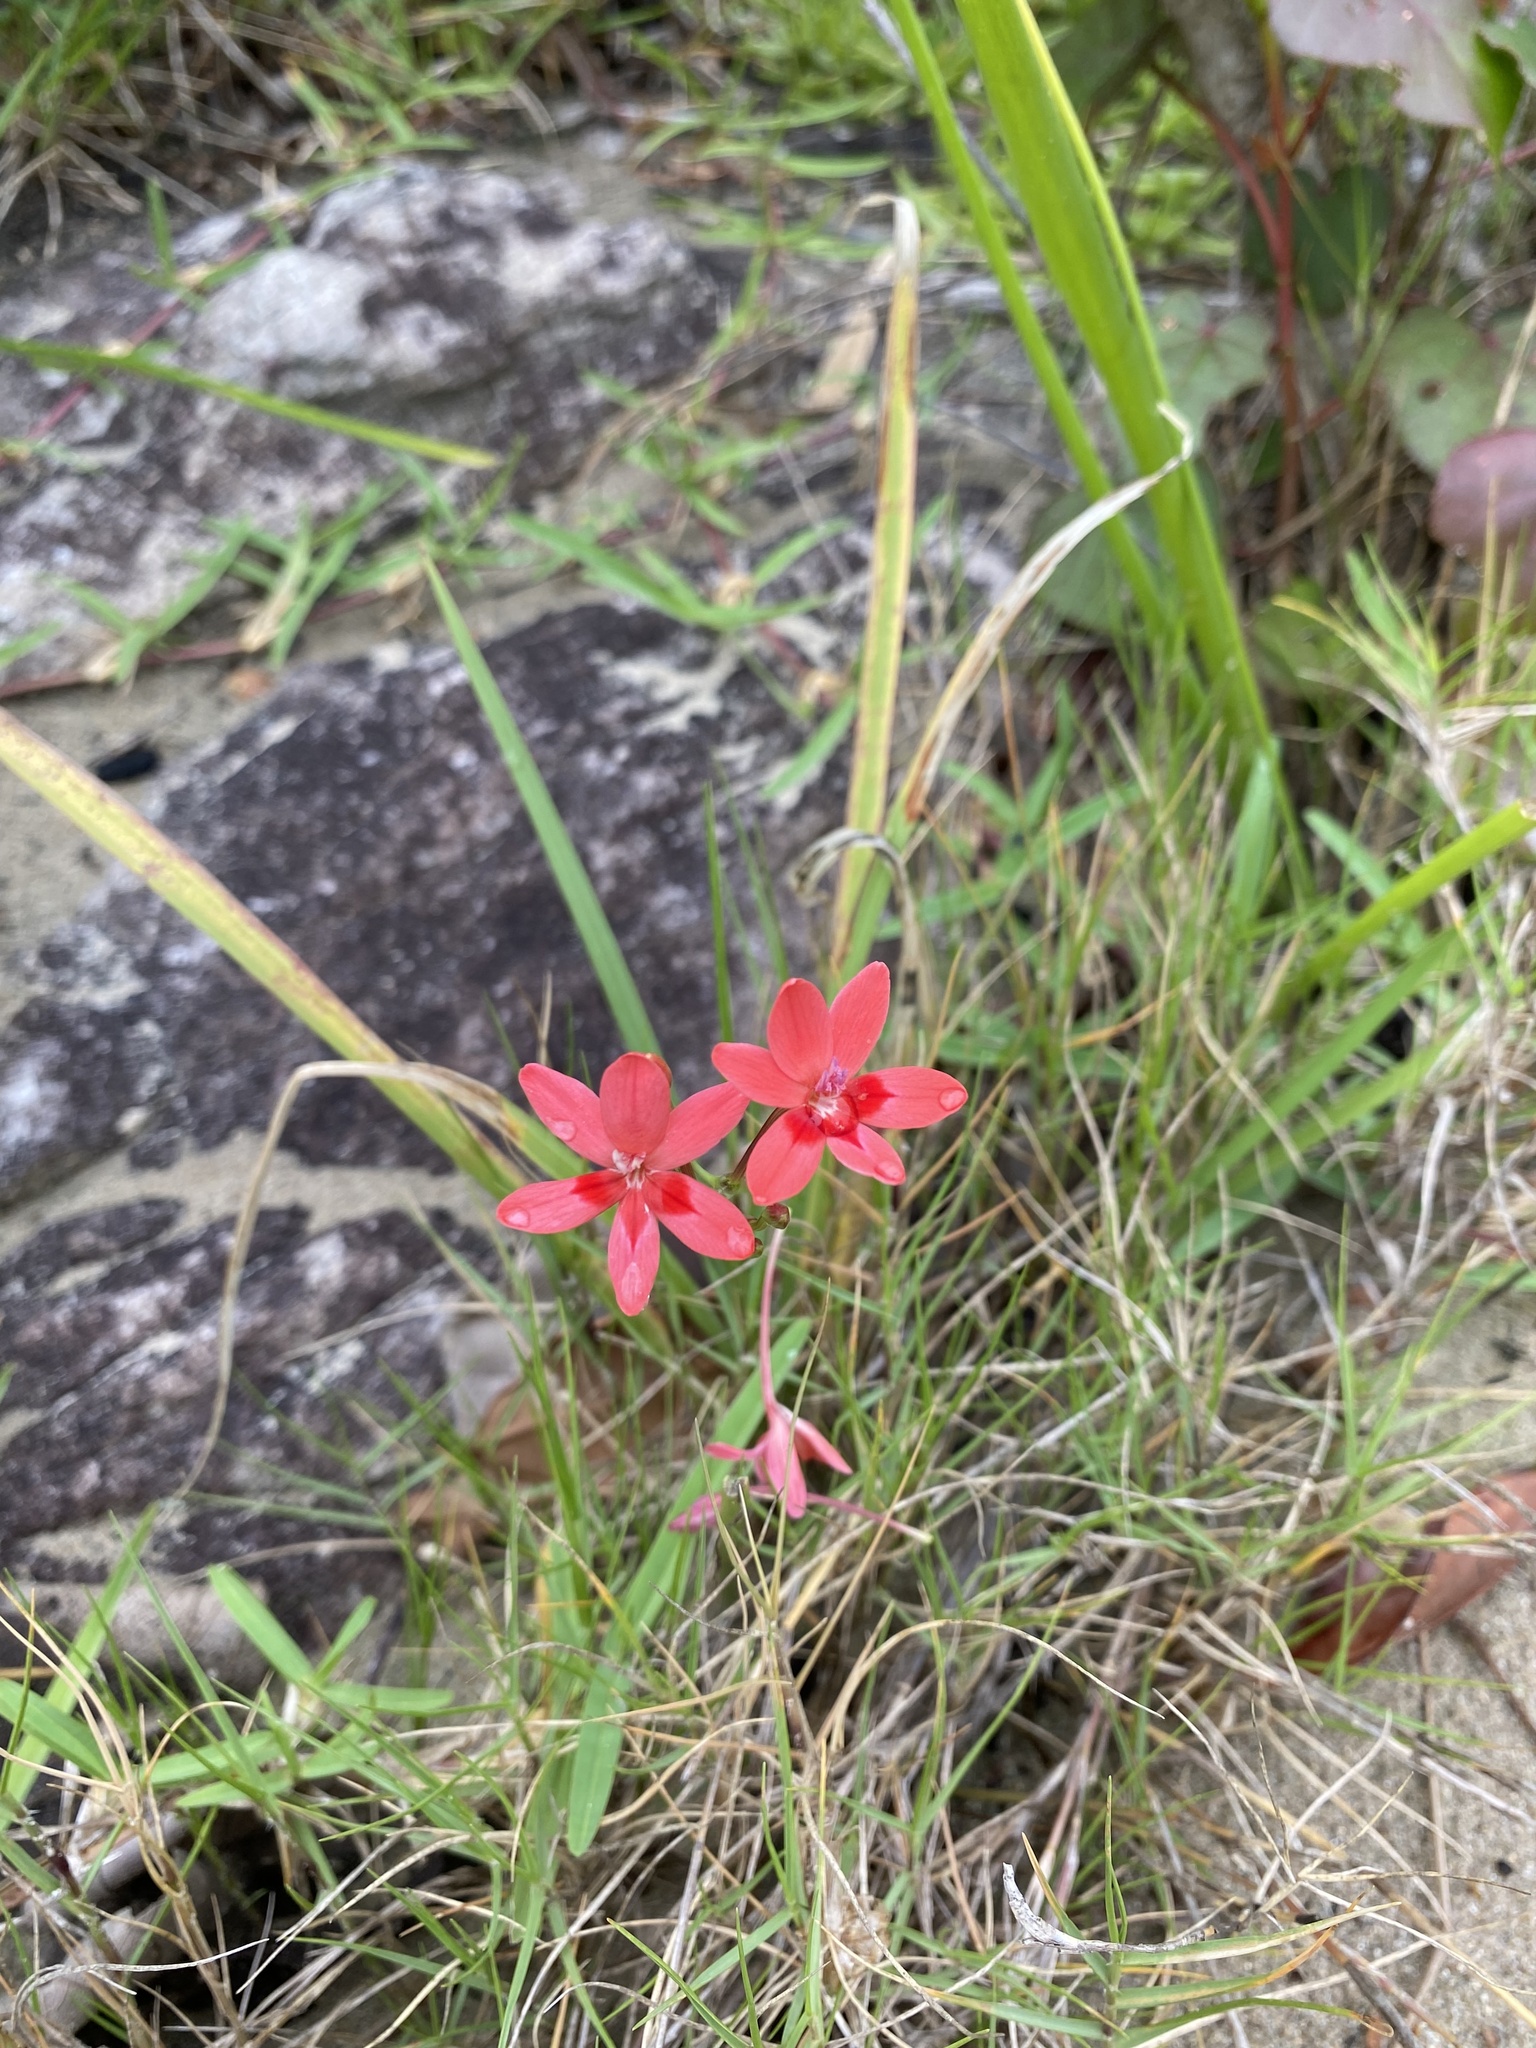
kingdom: Plantae
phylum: Tracheophyta
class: Liliopsida
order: Asparagales
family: Iridaceae
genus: Freesia
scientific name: Freesia laxa
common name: False freesia
